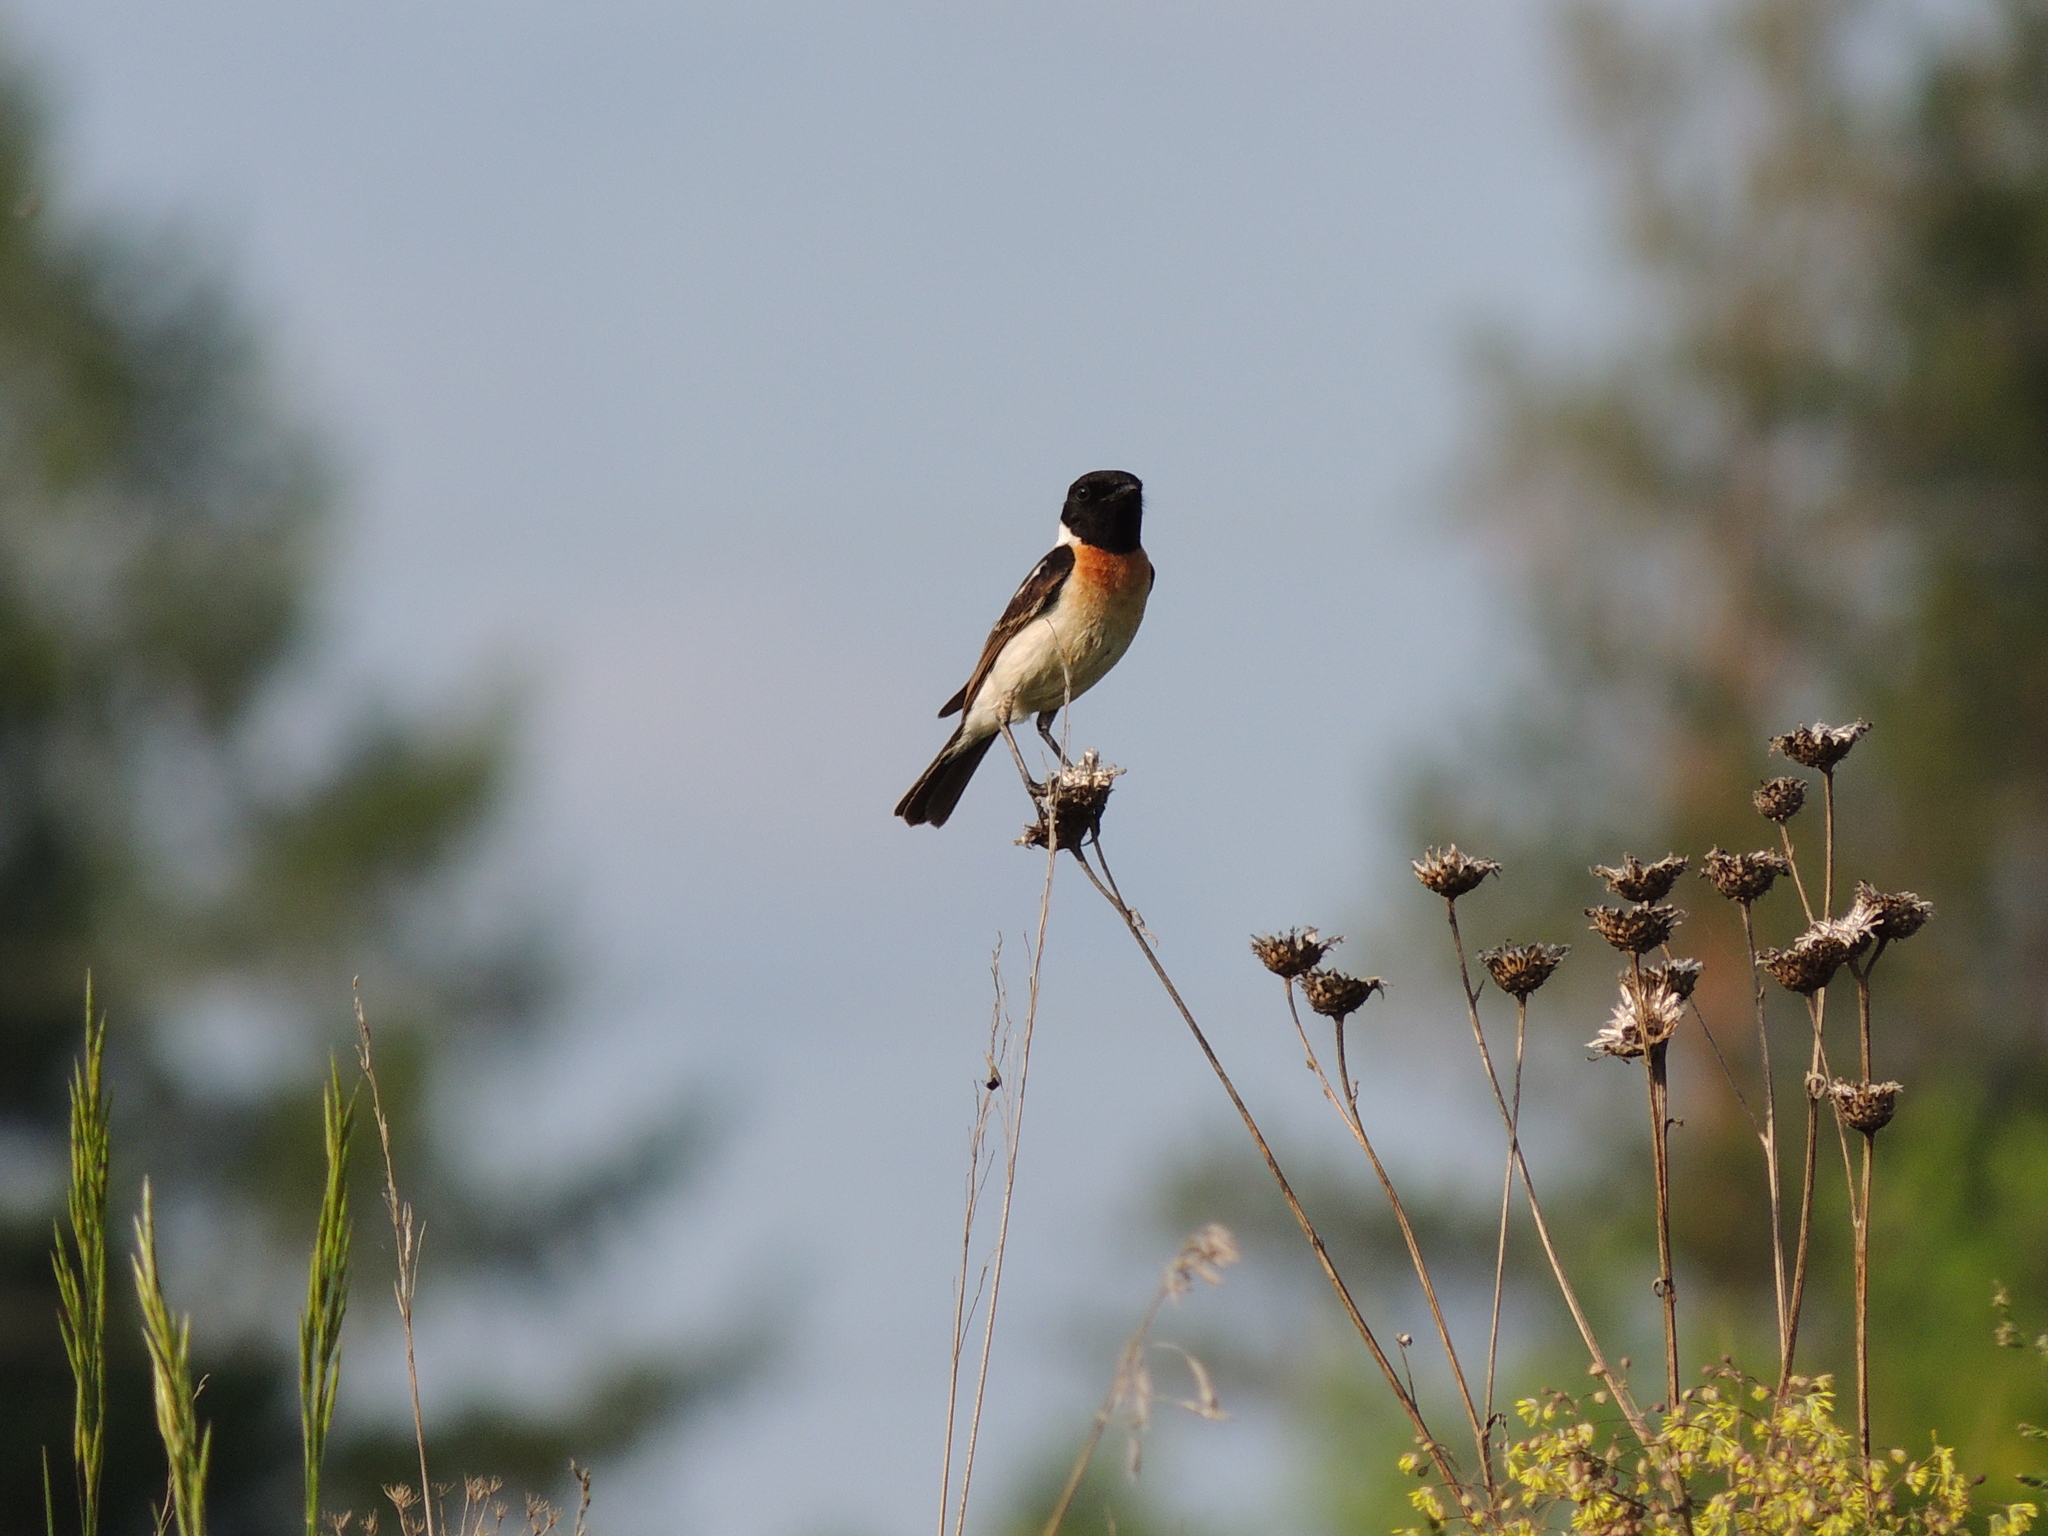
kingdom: Animalia
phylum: Chordata
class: Aves
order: Passeriformes
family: Muscicapidae
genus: Saxicola
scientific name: Saxicola maurus
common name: Siberian stonechat
